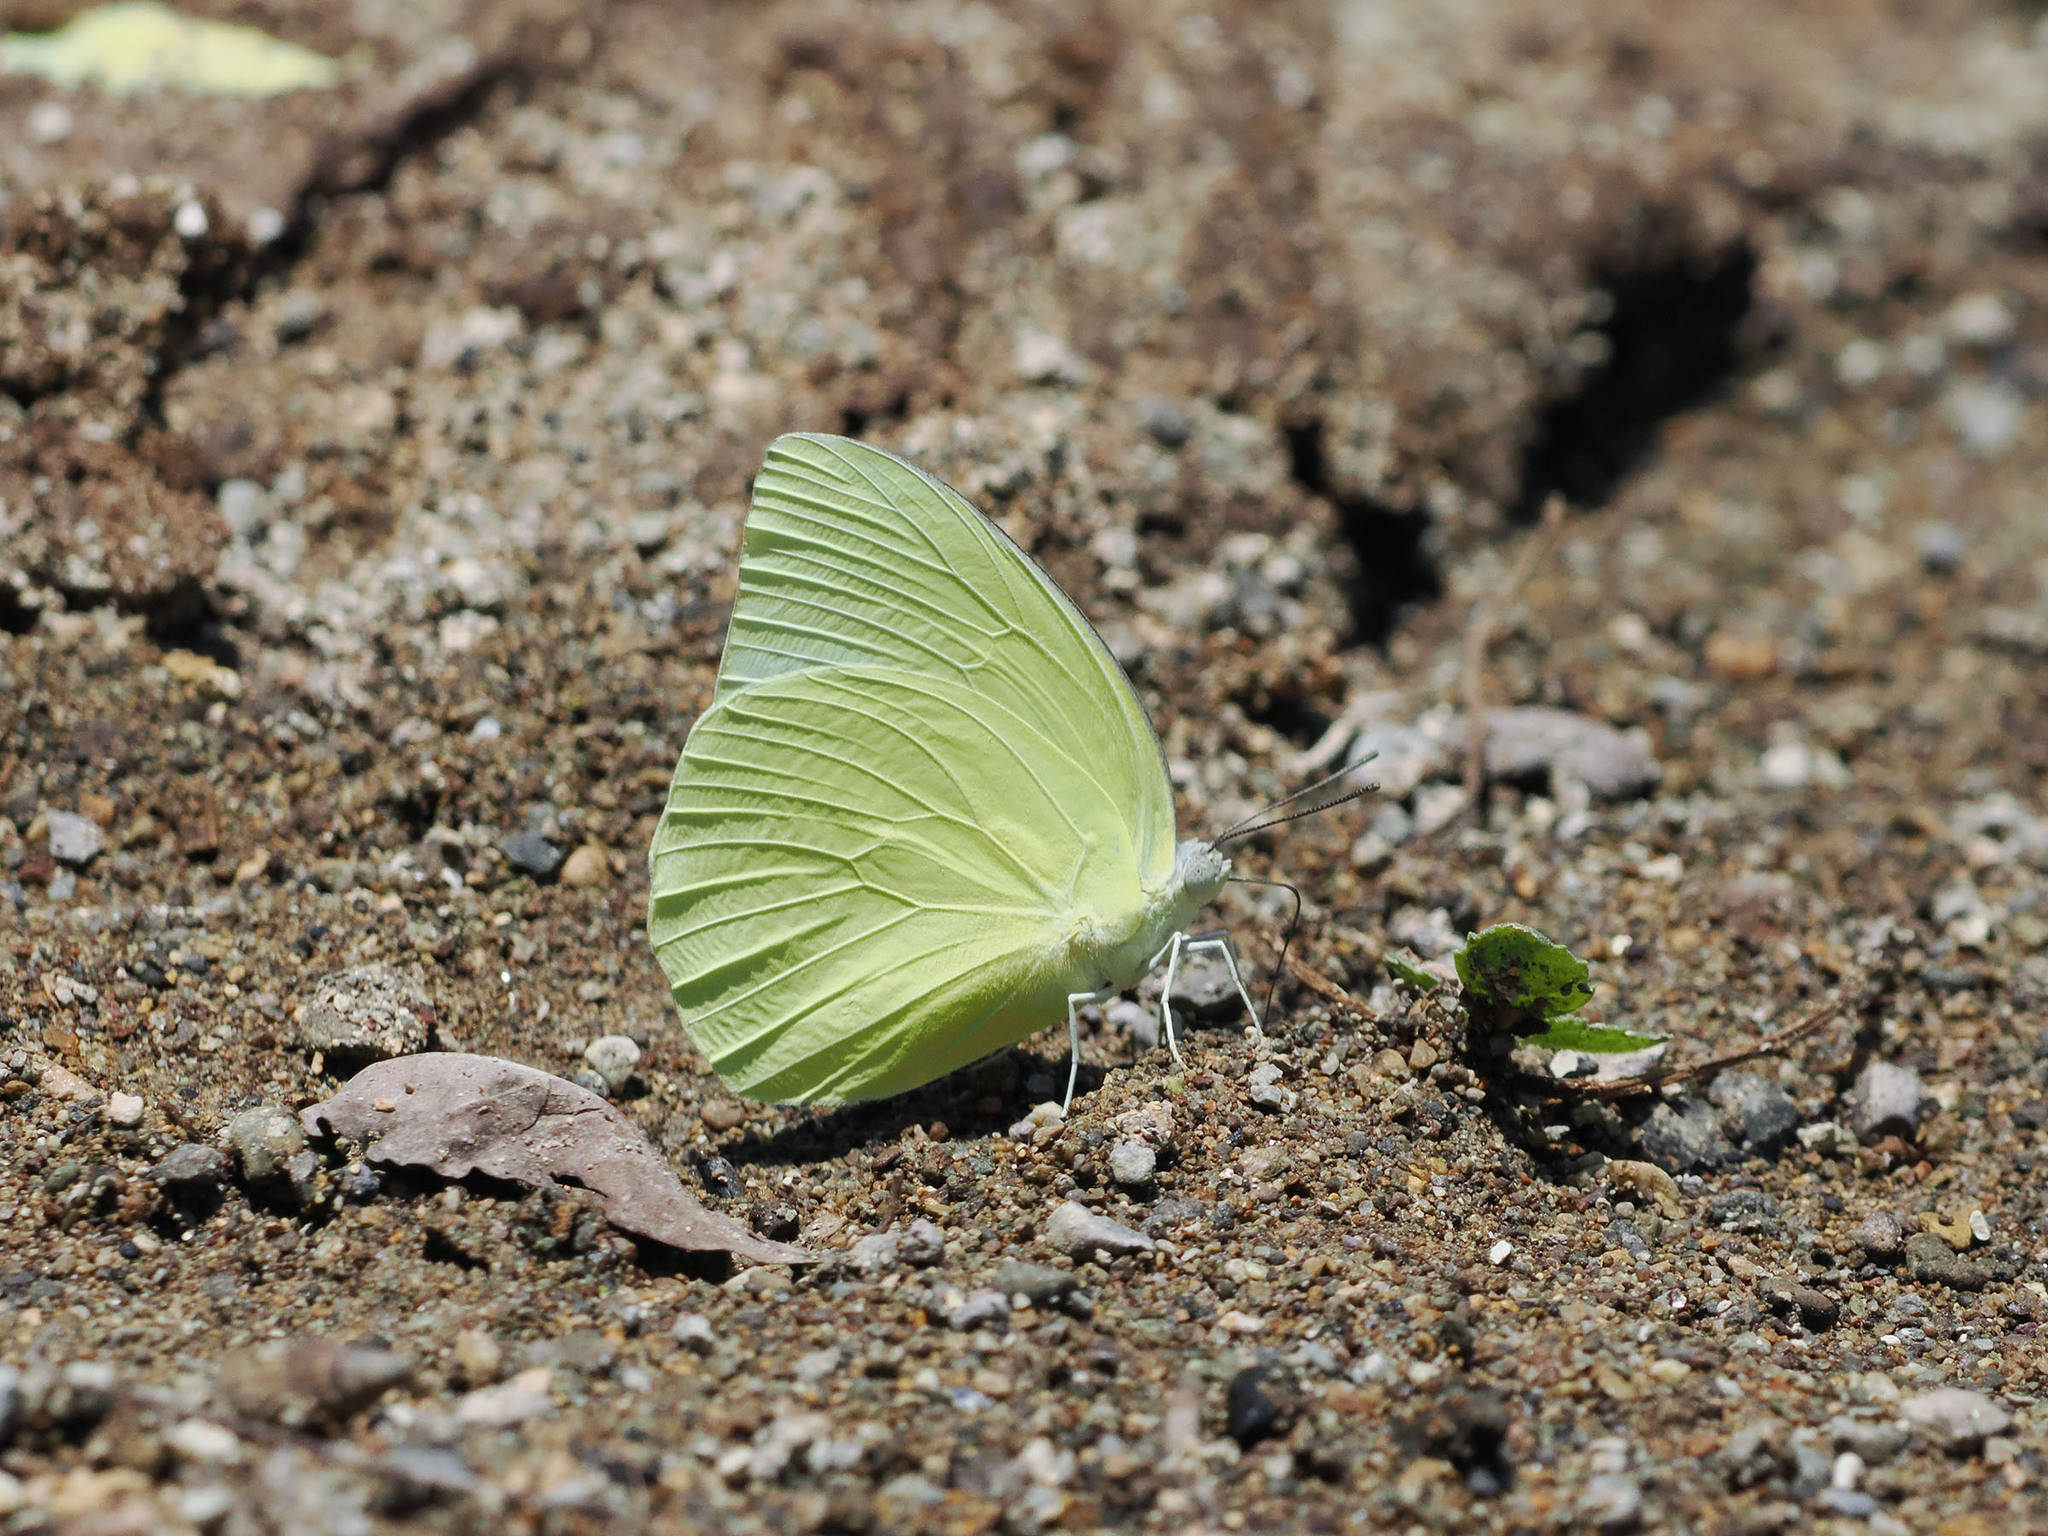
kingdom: Animalia
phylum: Arthropoda
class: Insecta
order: Lepidoptera
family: Pieridae
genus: Catopsilia
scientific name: Catopsilia pomona
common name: Common emigrant
